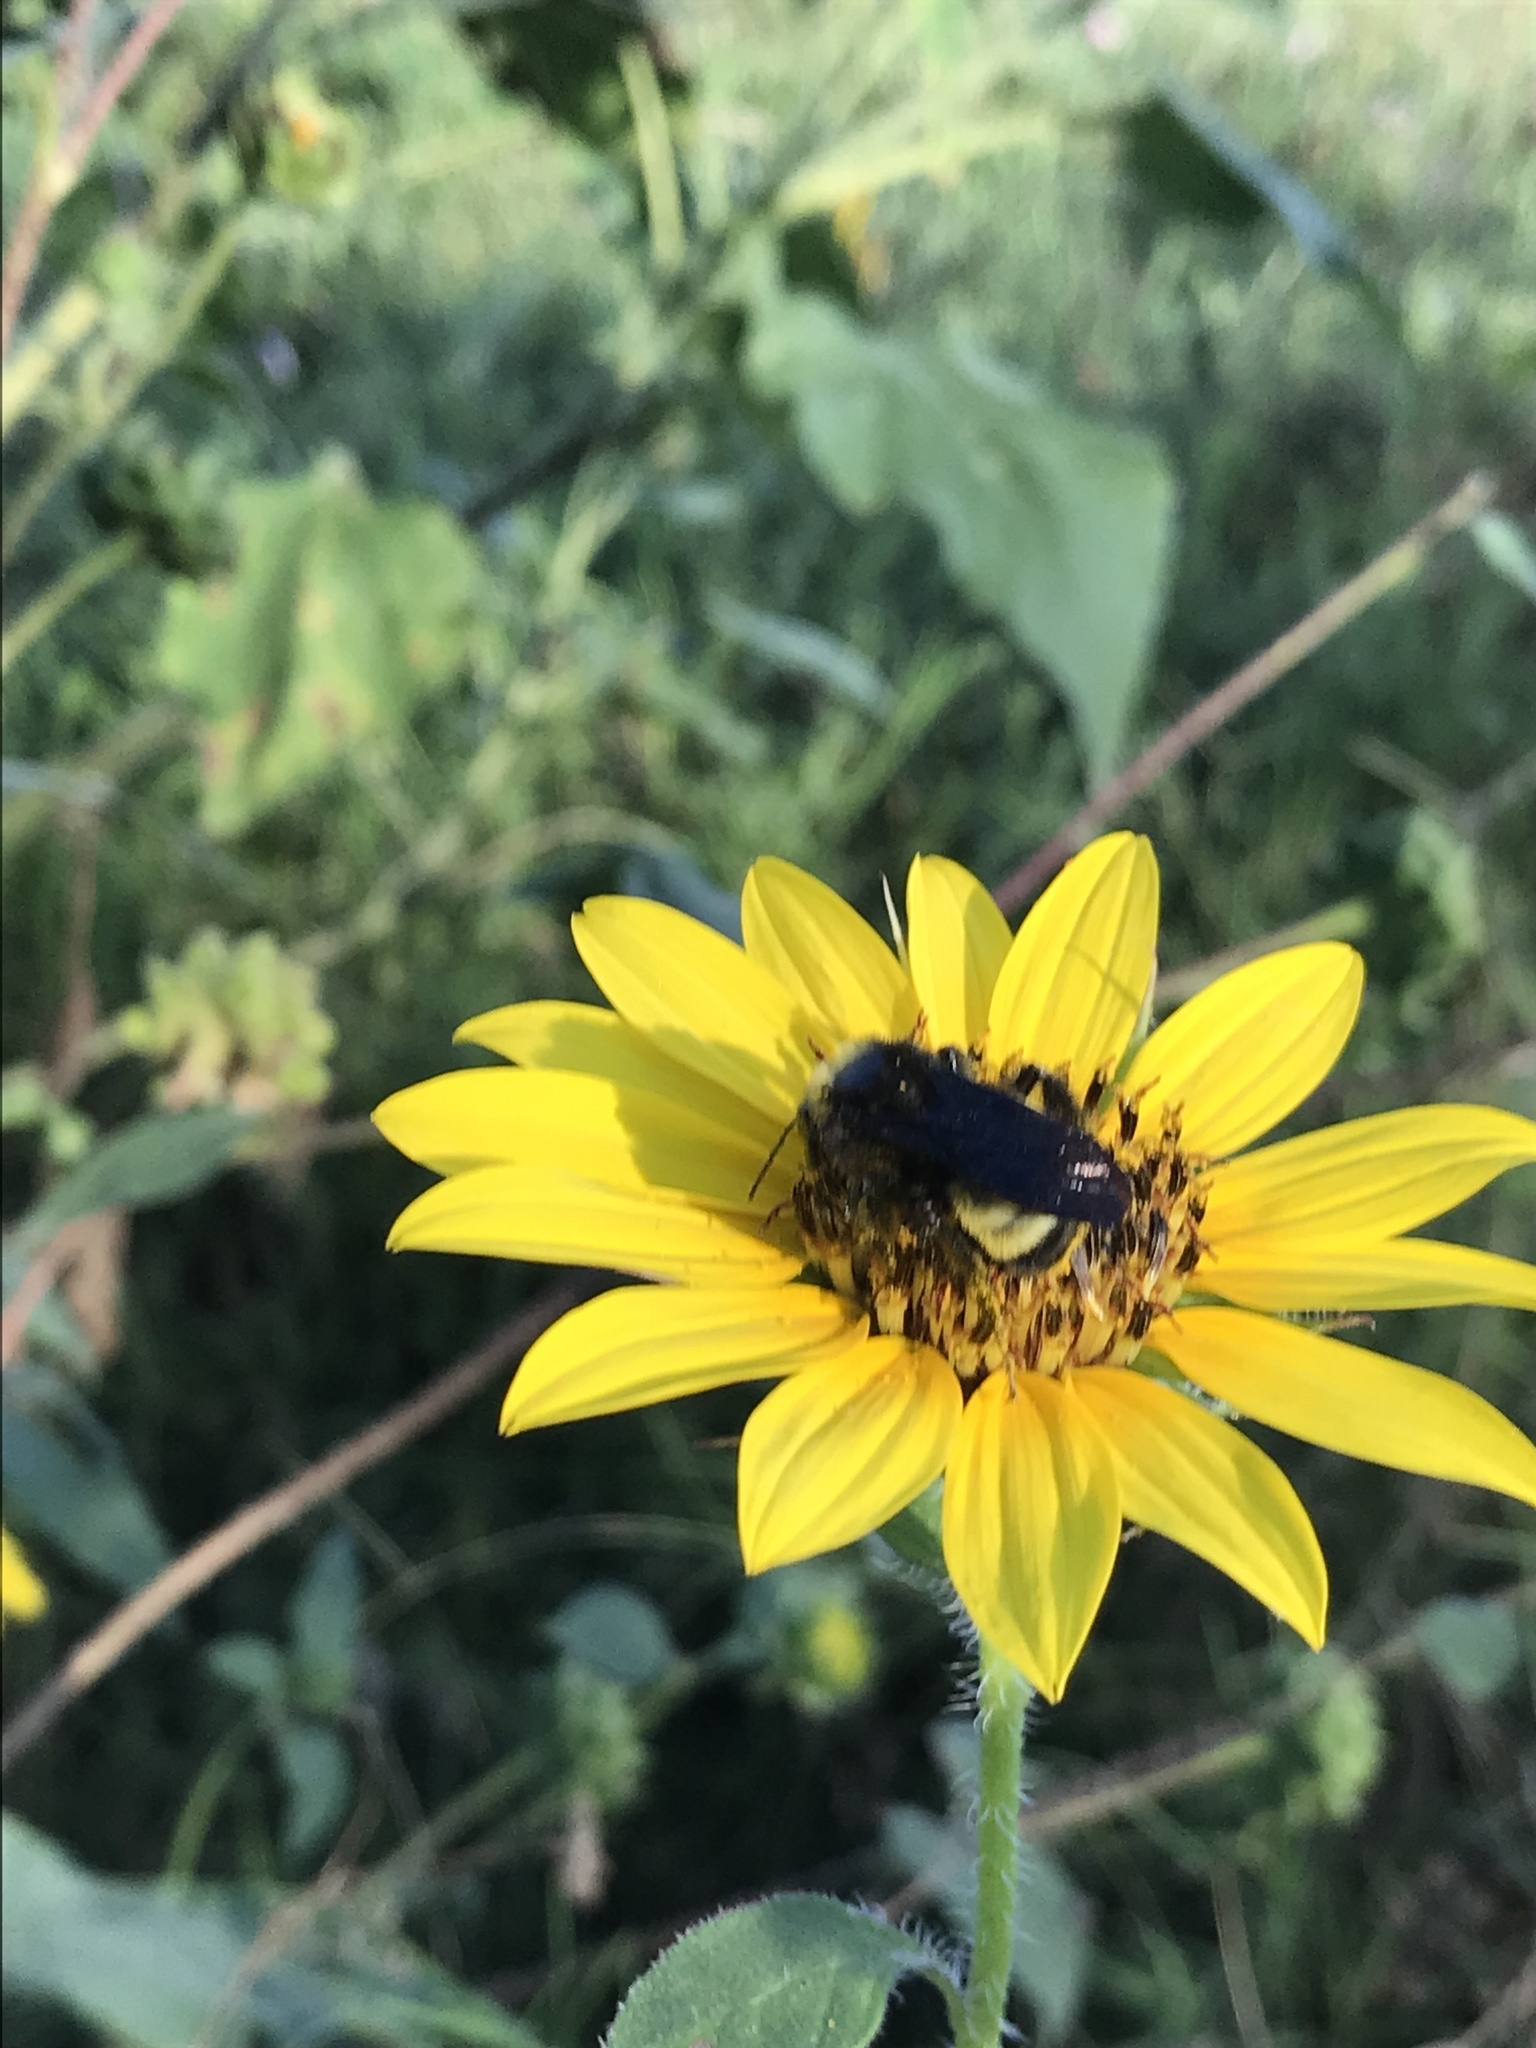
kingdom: Animalia
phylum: Arthropoda
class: Insecta
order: Hymenoptera
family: Apidae
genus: Bombus
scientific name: Bombus pensylvanicus
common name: Bumble bee
